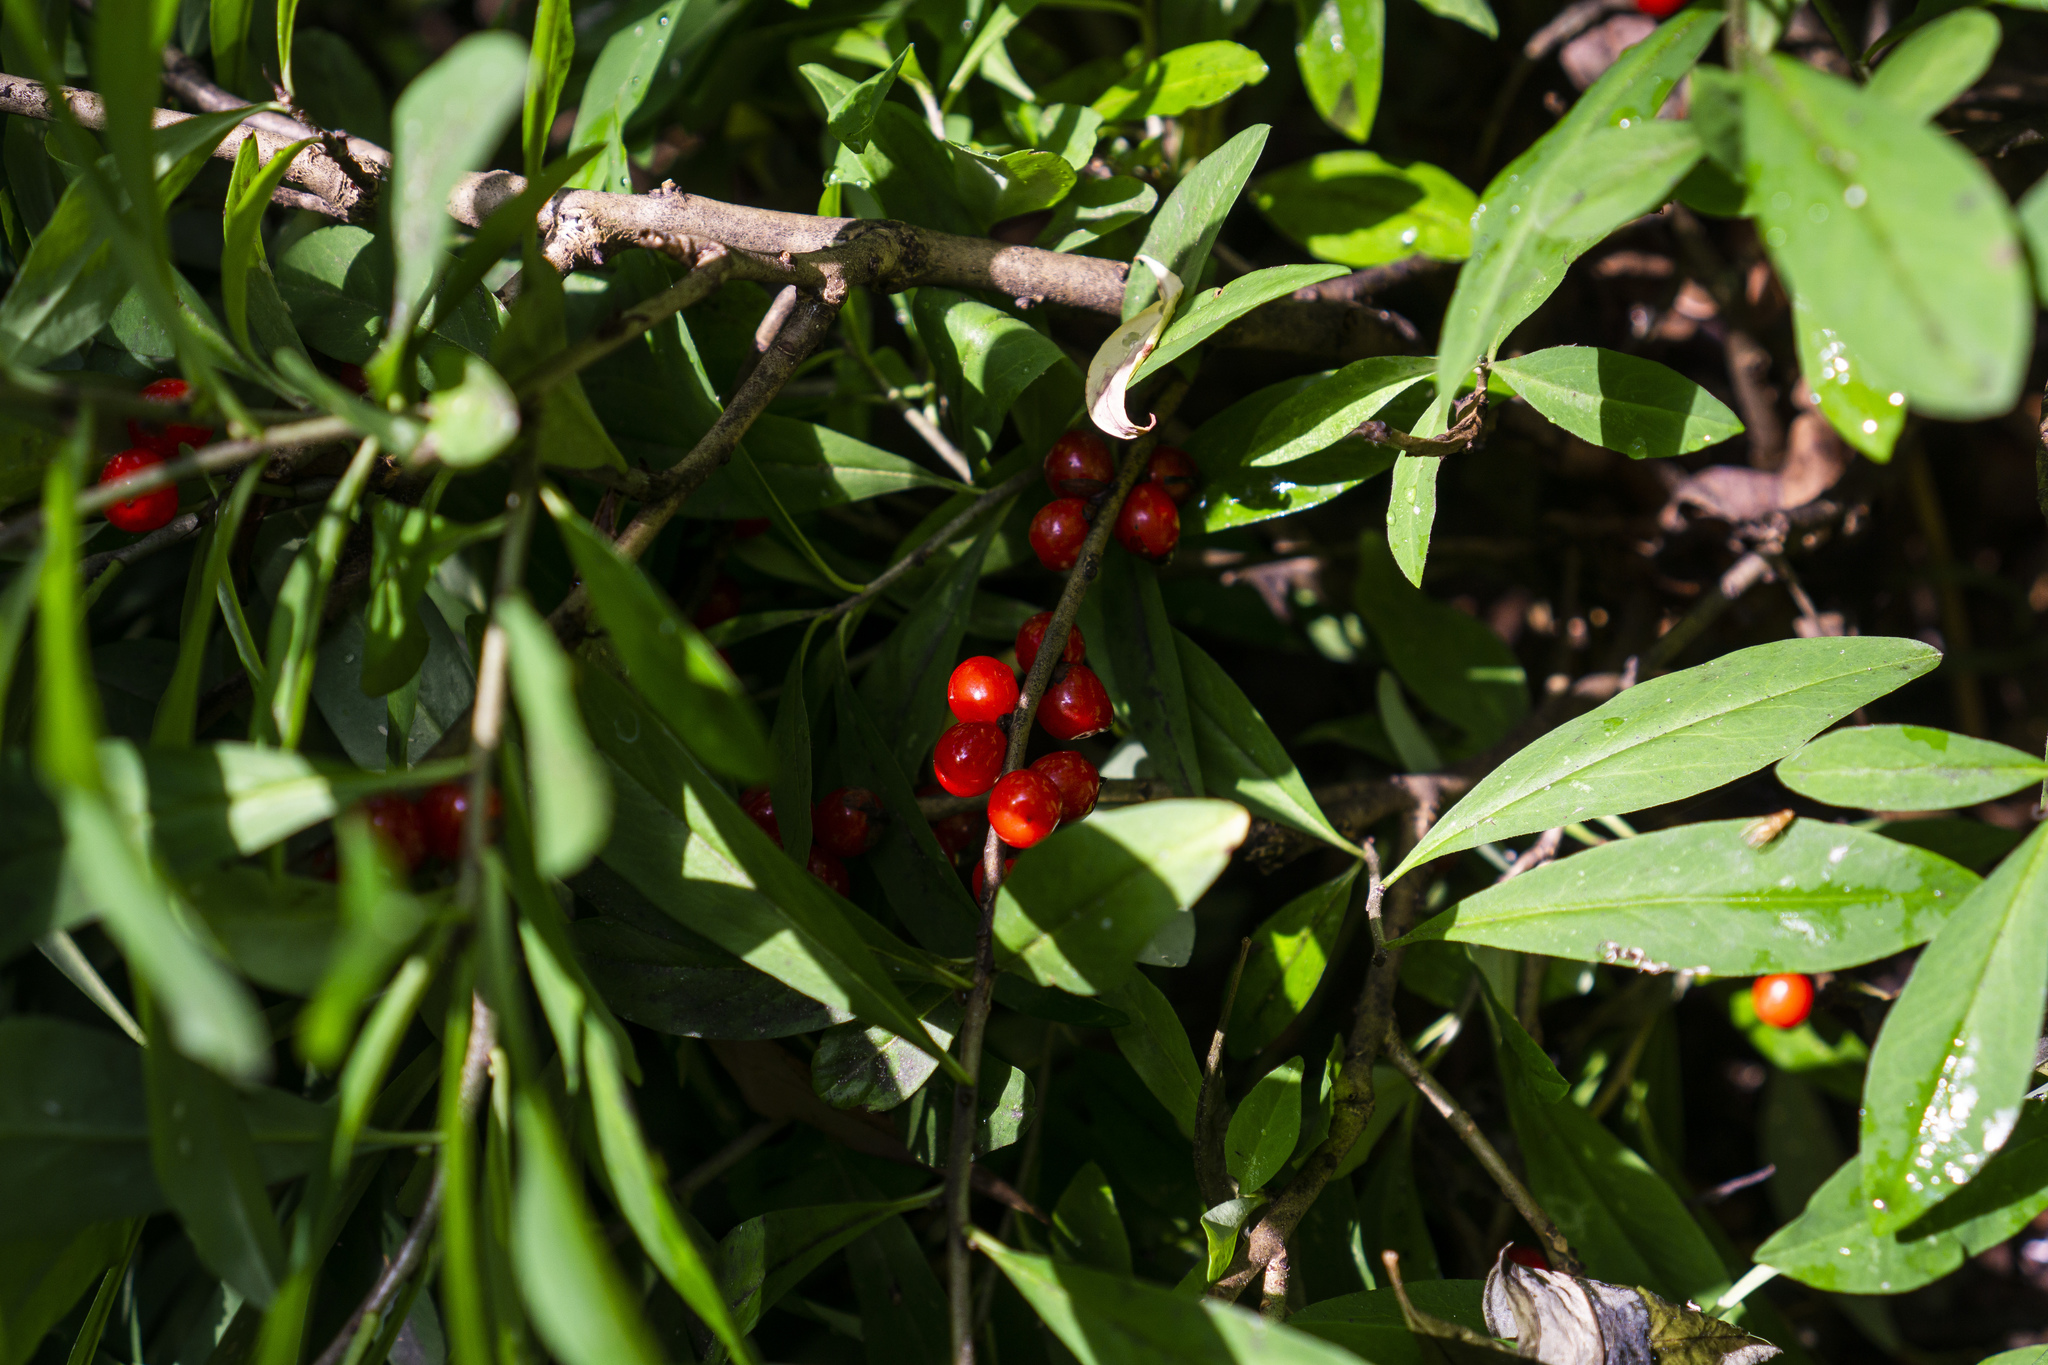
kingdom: Plantae
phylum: Tracheophyta
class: Magnoliopsida
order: Malvales
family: Thymelaeaceae
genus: Daphne
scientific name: Daphne mezereum
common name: Mezereon
